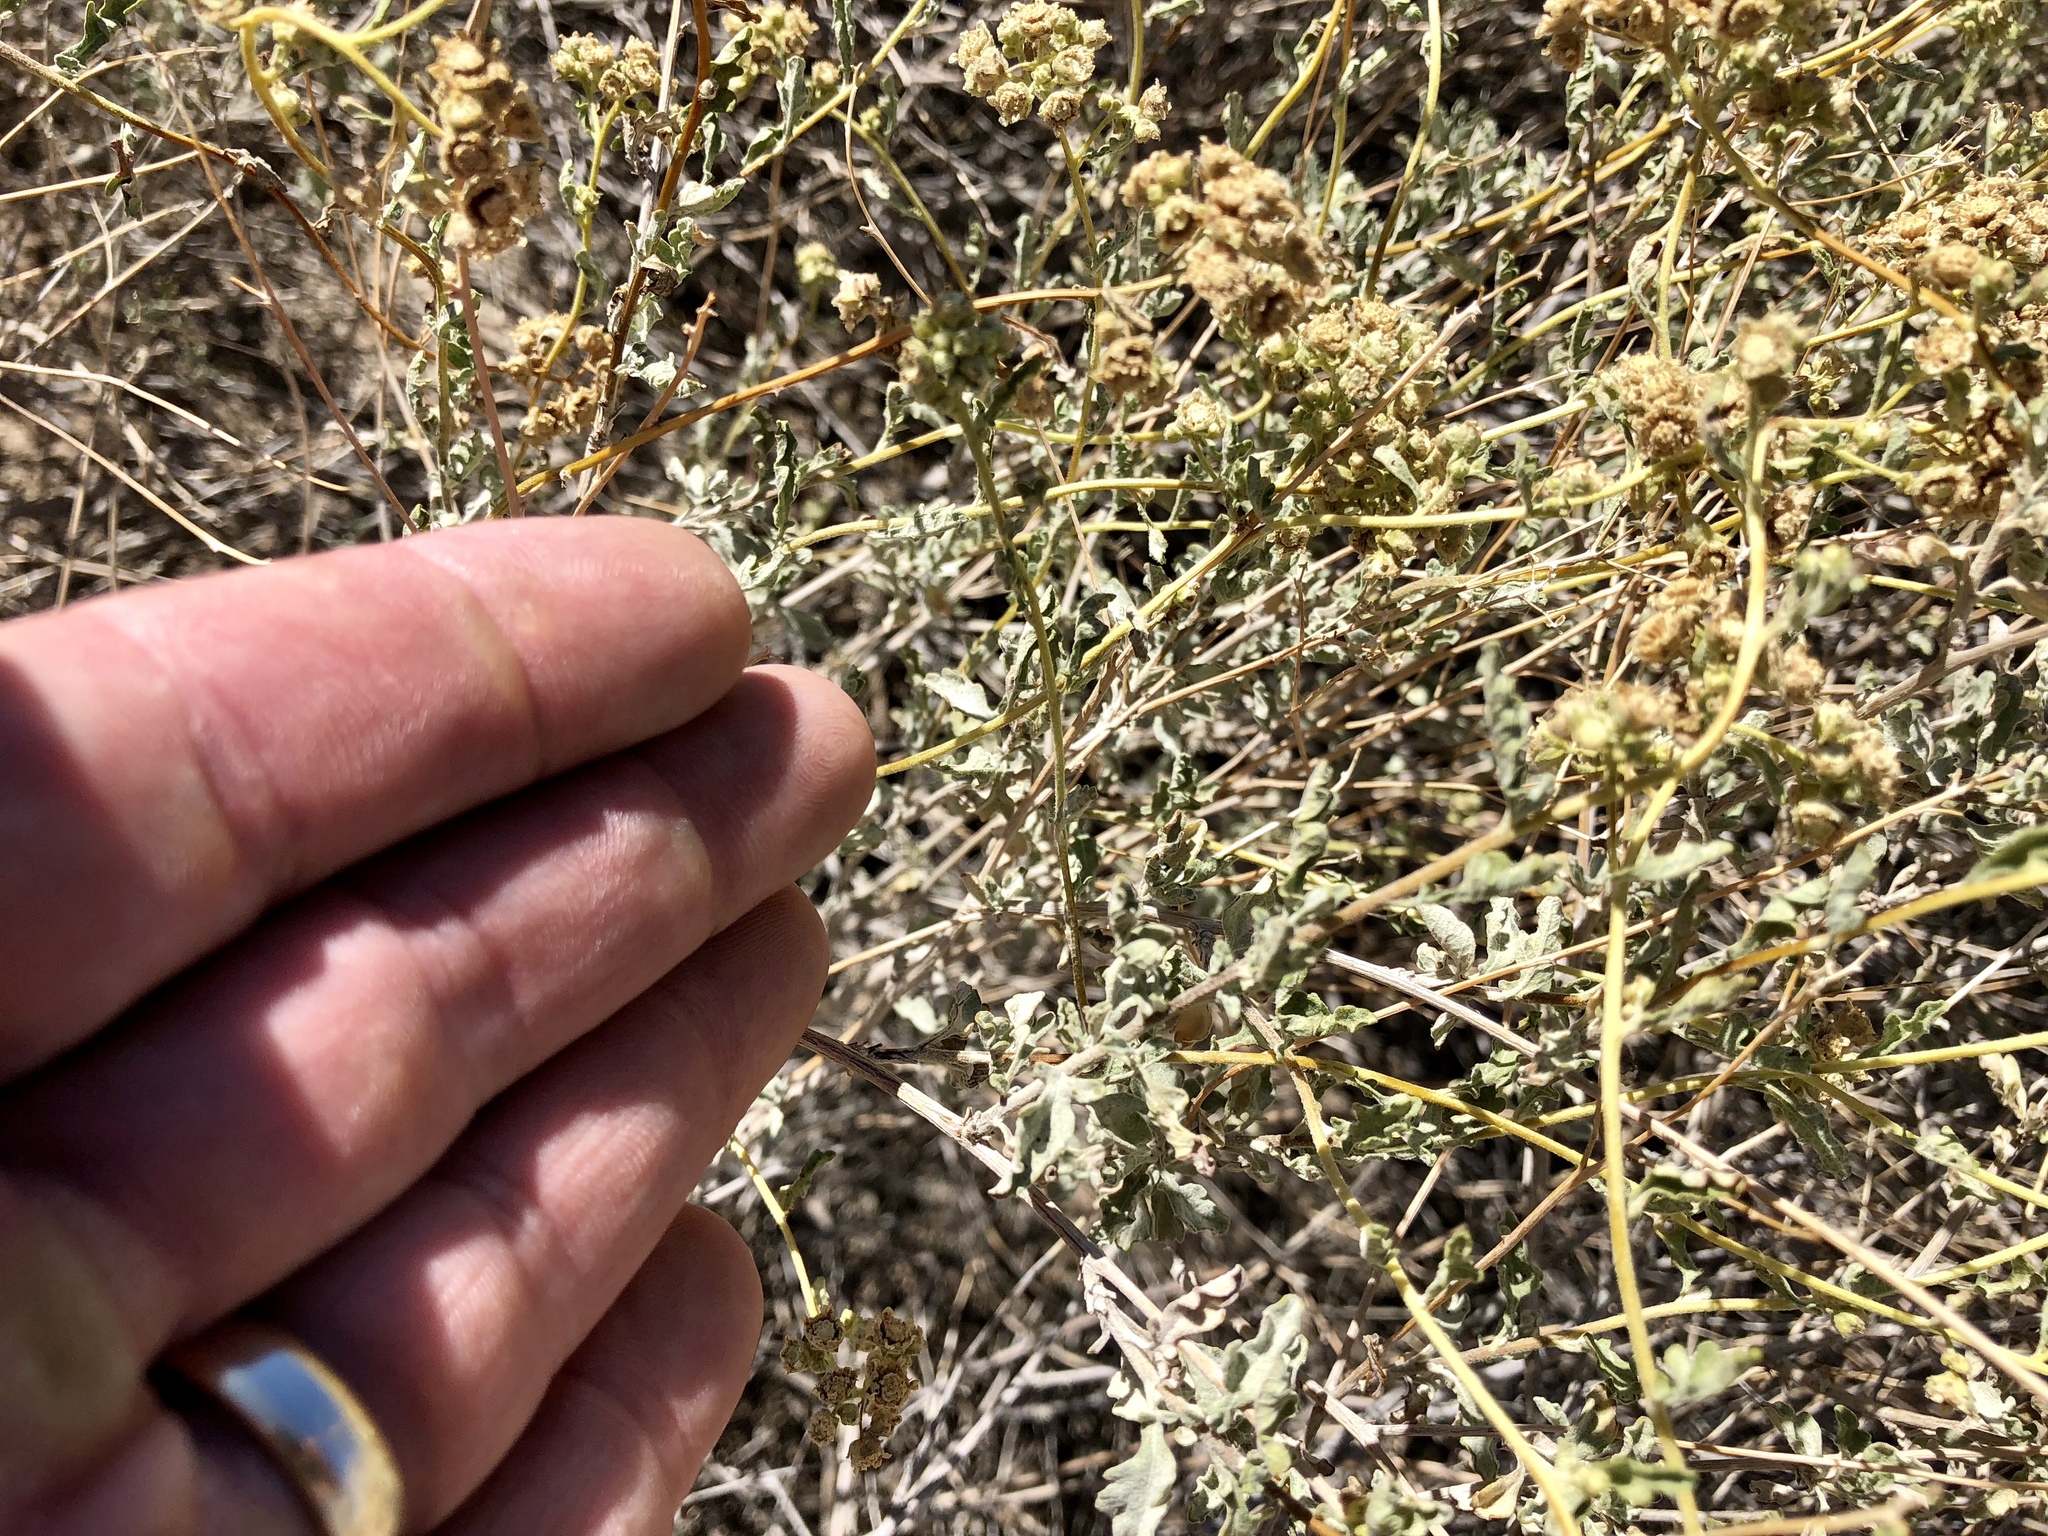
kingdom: Plantae
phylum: Tracheophyta
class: Magnoliopsida
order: Caryophyllales
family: Amaranthaceae
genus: Atriplex
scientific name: Atriplex canescens
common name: Four-wing saltbush
